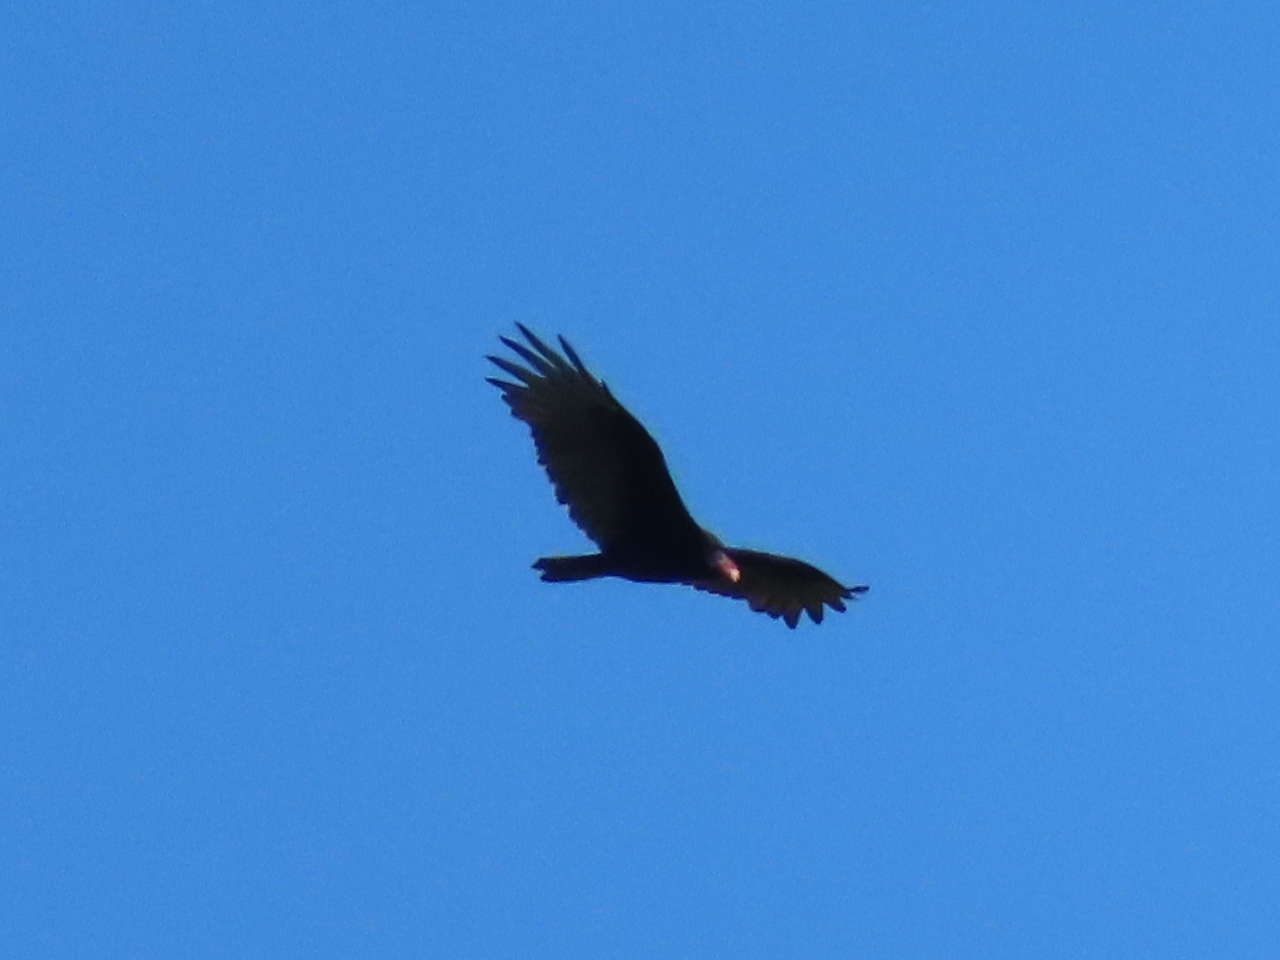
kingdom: Animalia
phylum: Chordata
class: Aves
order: Accipitriformes
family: Cathartidae
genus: Cathartes
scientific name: Cathartes aura
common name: Turkey vulture
